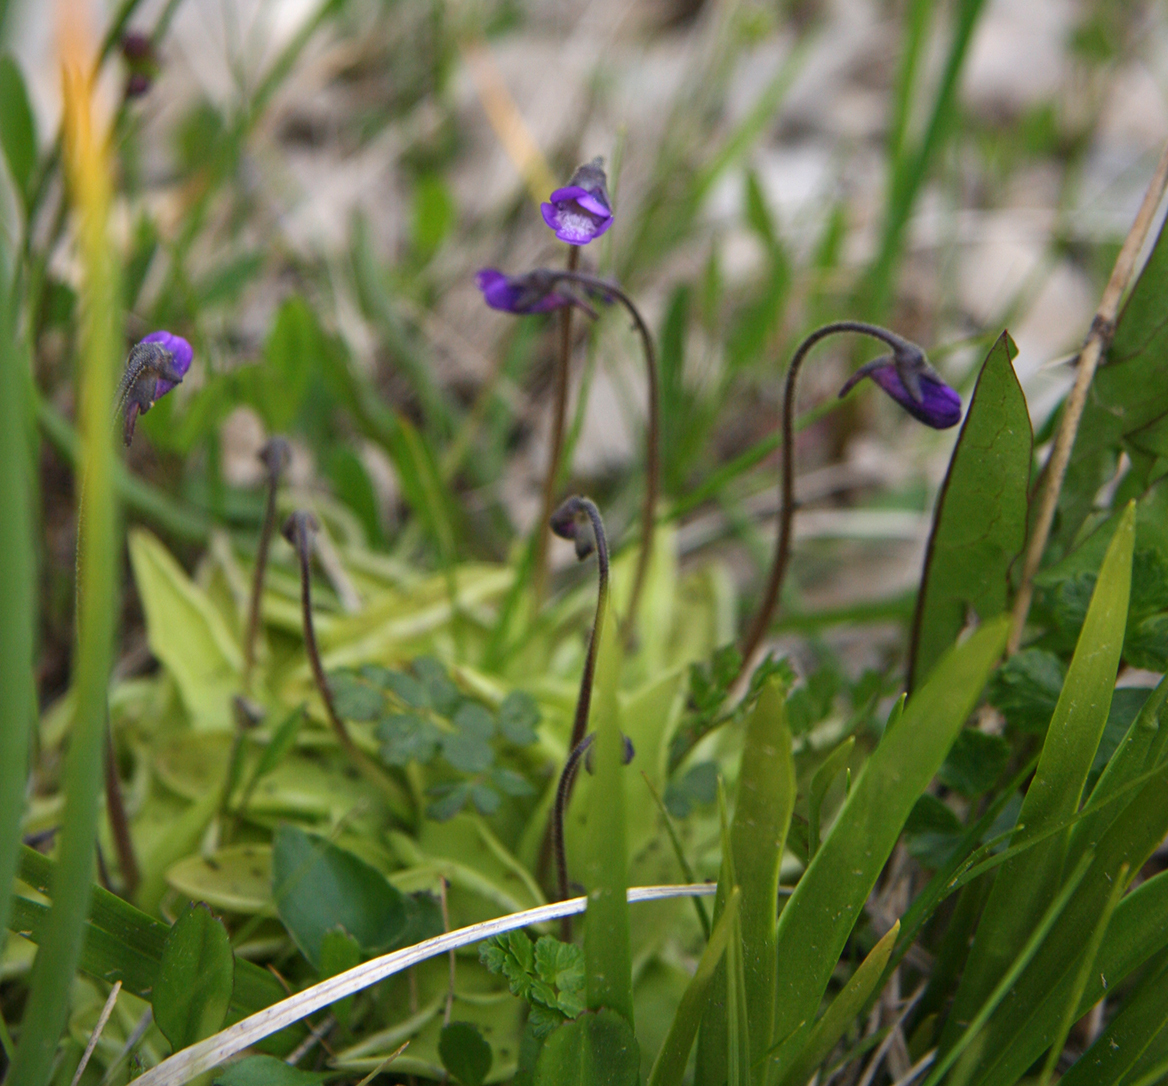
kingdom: Plantae
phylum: Tracheophyta
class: Magnoliopsida
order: Lamiales
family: Lentibulariaceae
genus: Pinguicula
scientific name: Pinguicula vulgaris
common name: Common butterwort
